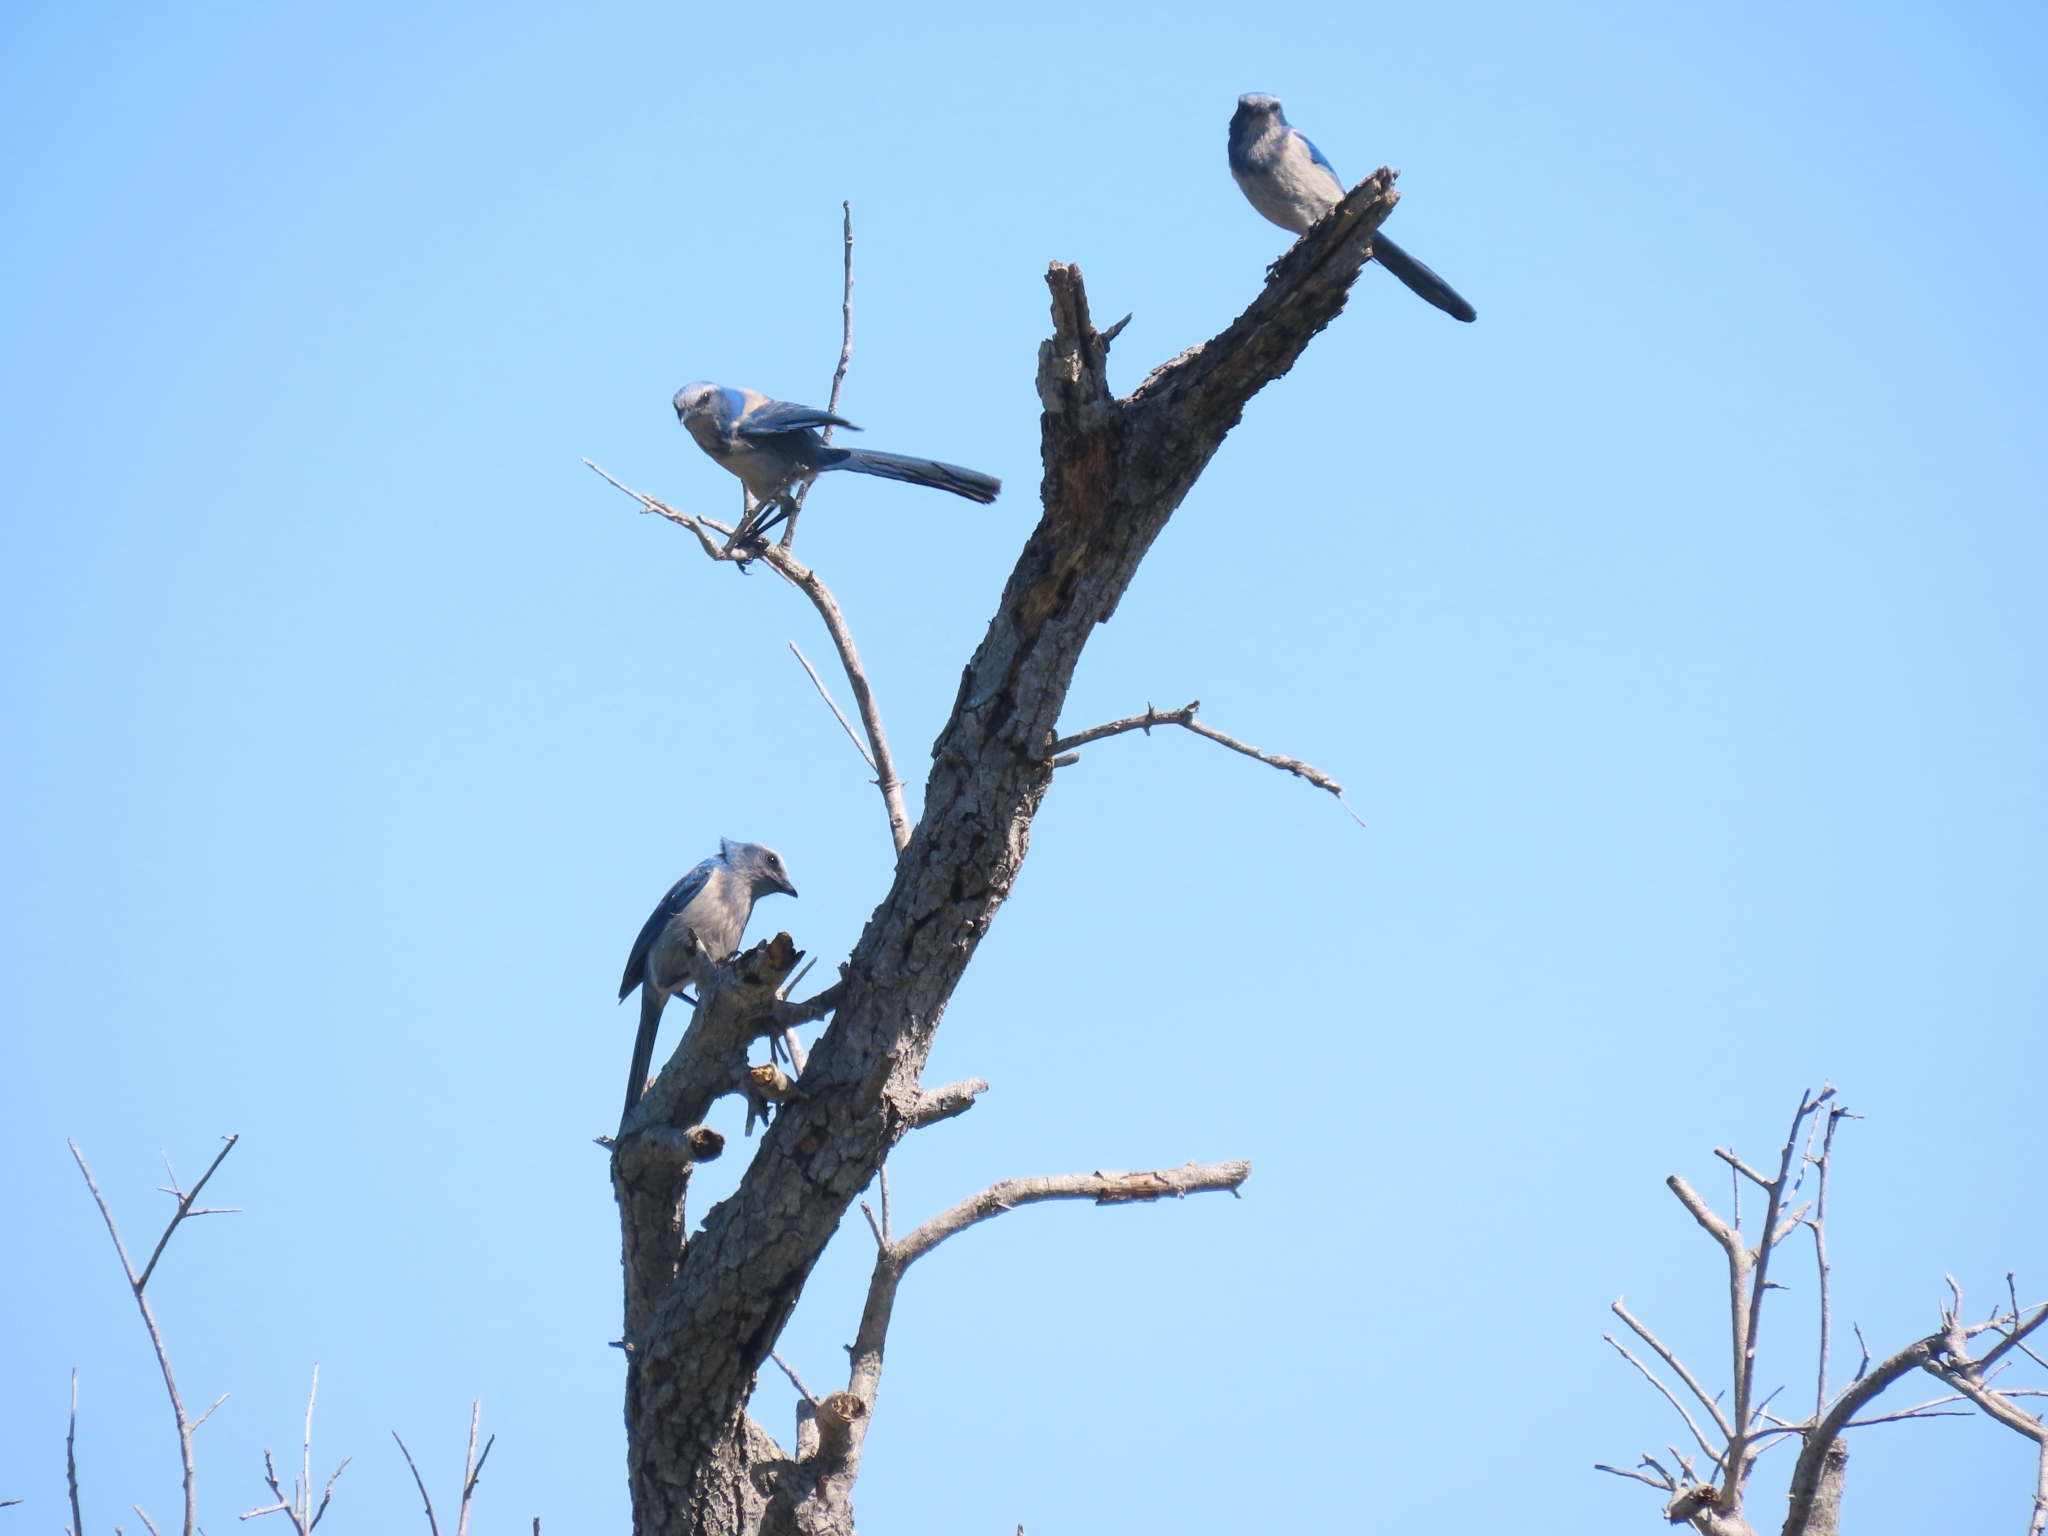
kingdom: Animalia
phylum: Chordata
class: Aves
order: Passeriformes
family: Corvidae
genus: Aphelocoma
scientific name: Aphelocoma coerulescens
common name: Florida scrub jay
